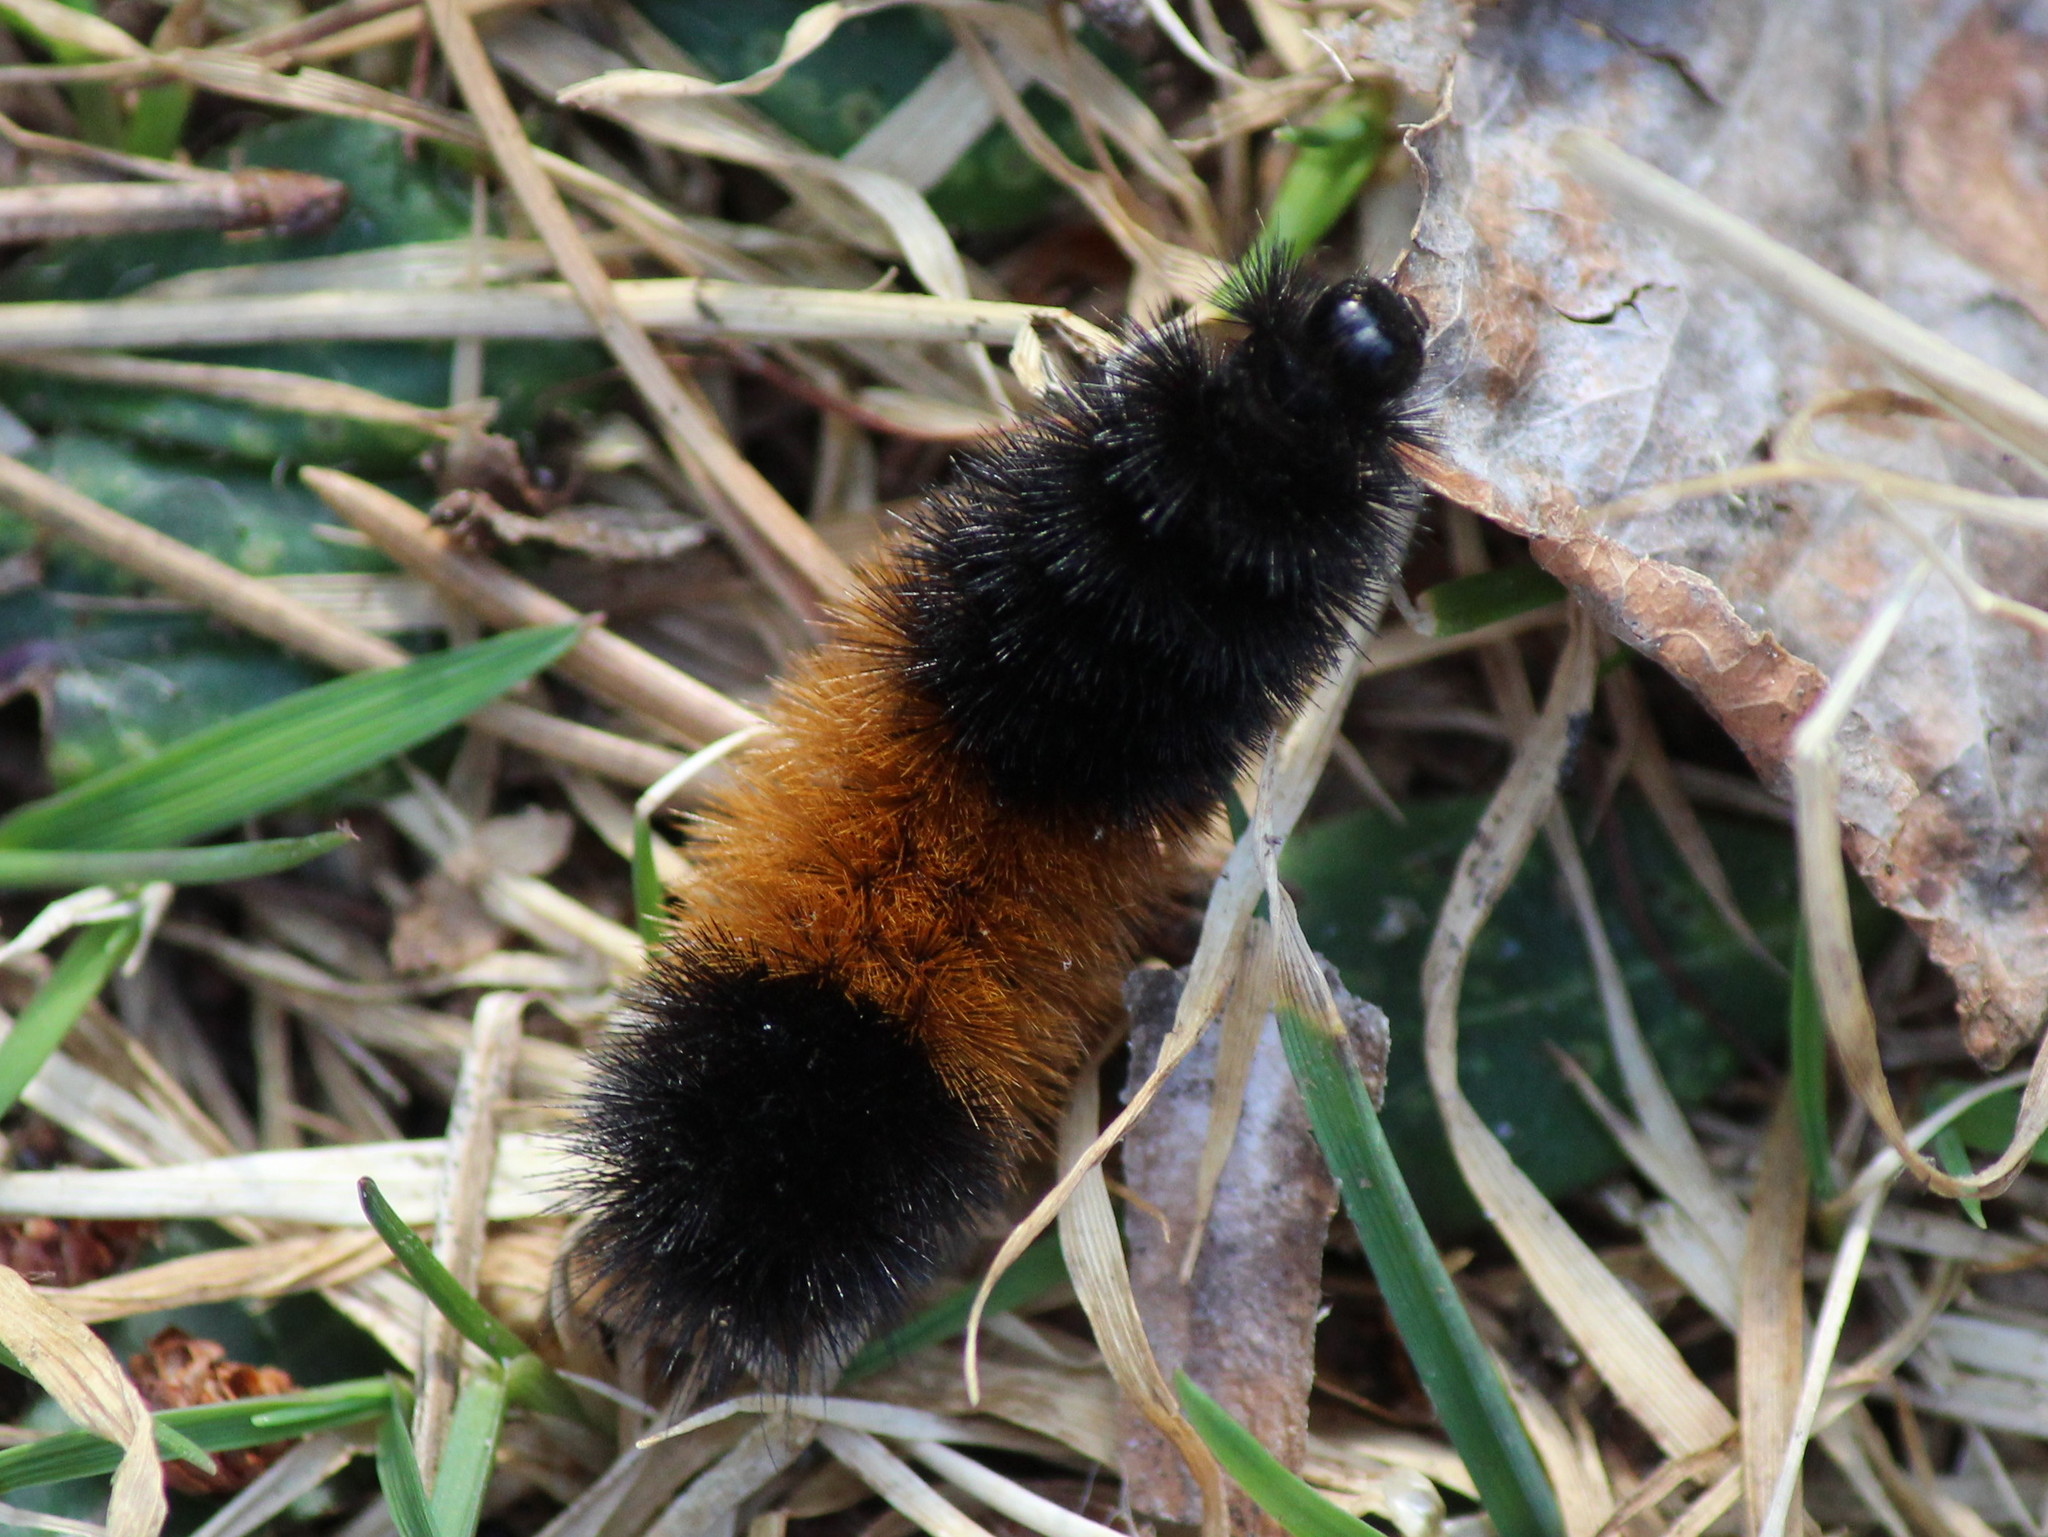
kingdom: Animalia
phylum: Arthropoda
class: Insecta
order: Lepidoptera
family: Erebidae
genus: Pyrrharctia
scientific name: Pyrrharctia isabella
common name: Isabella tiger moth
